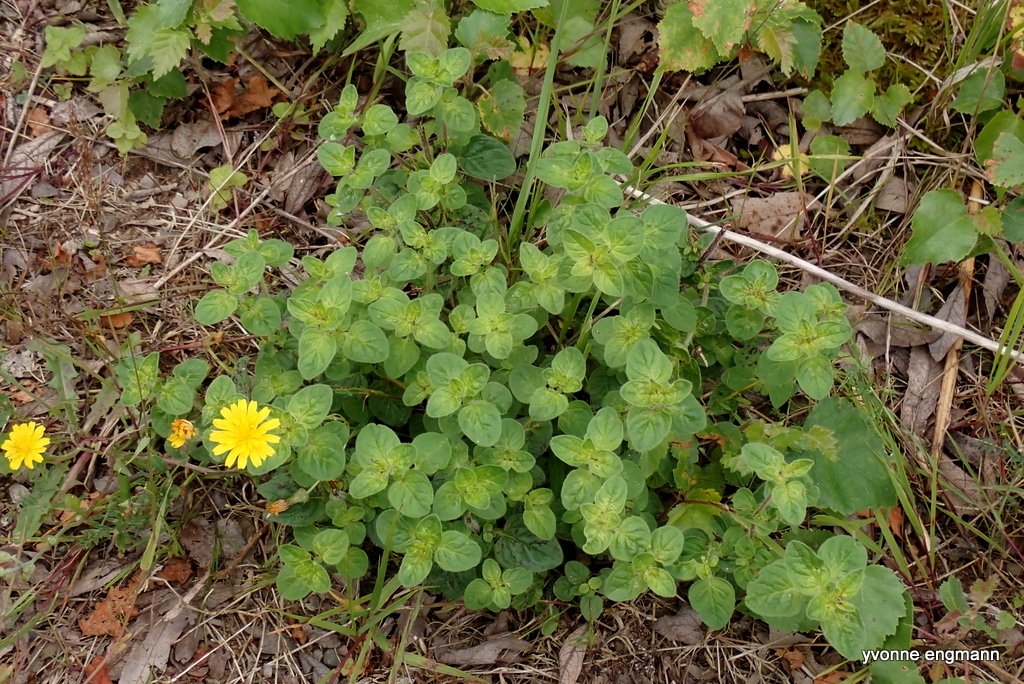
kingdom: Plantae
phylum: Tracheophyta
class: Magnoliopsida
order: Lamiales
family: Lamiaceae
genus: Origanum
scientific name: Origanum vulgare
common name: Wild marjoram
